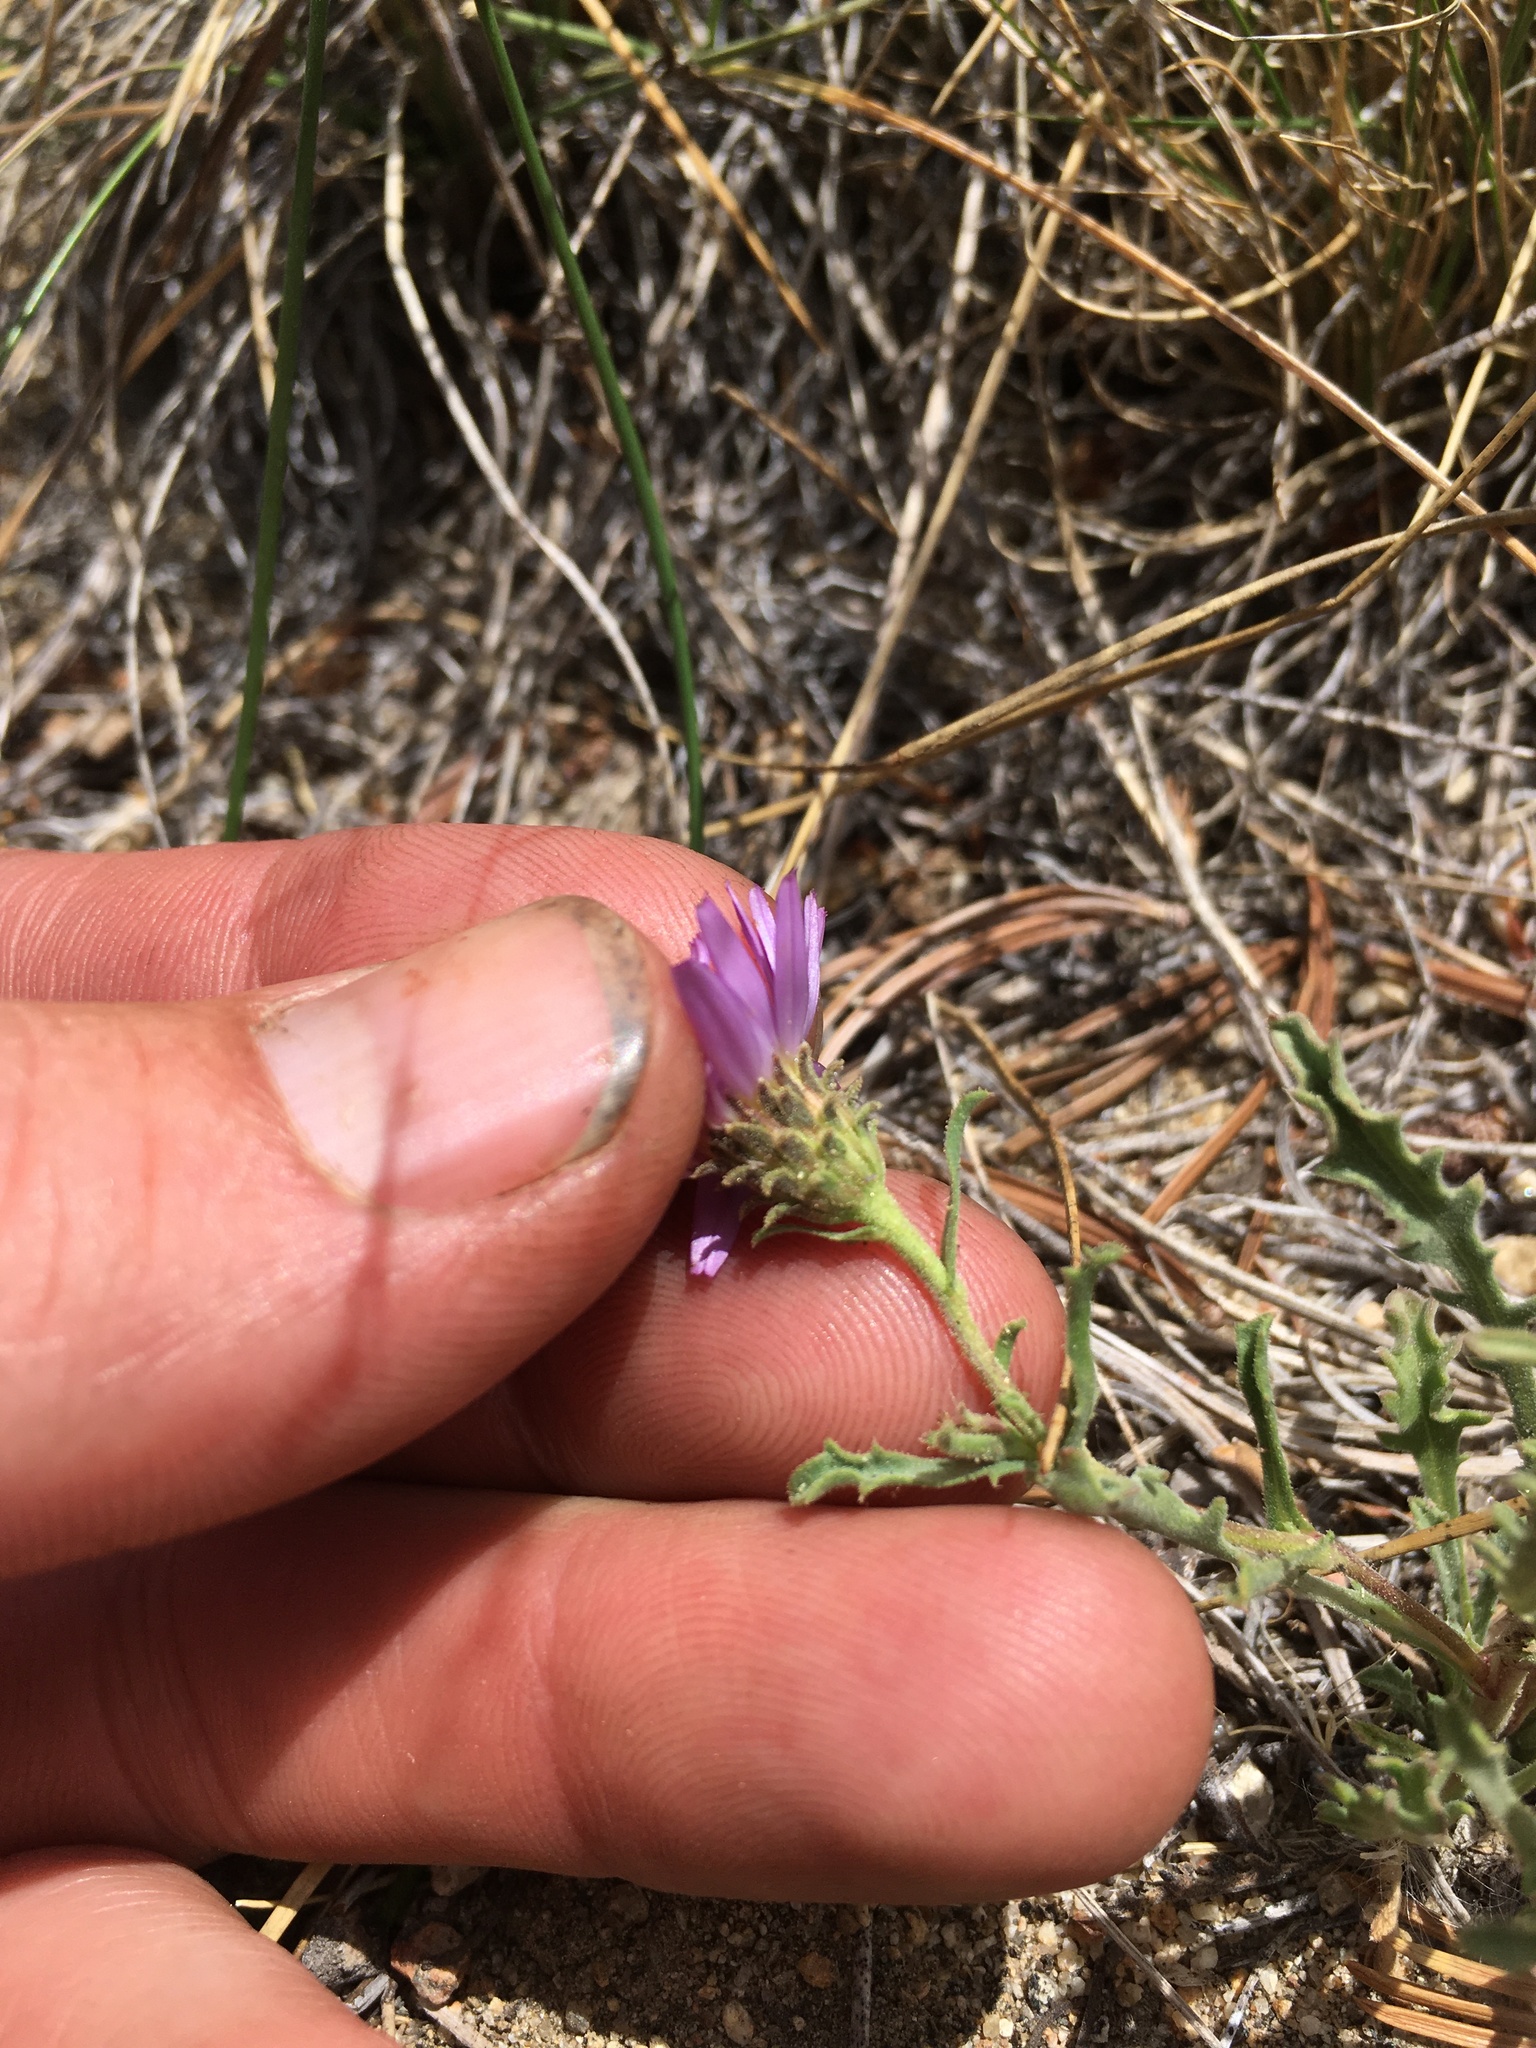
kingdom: Plantae
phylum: Tracheophyta
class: Magnoliopsida
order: Asterales
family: Asteraceae
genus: Dieteria
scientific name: Dieteria canescens
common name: Hoary-aster
